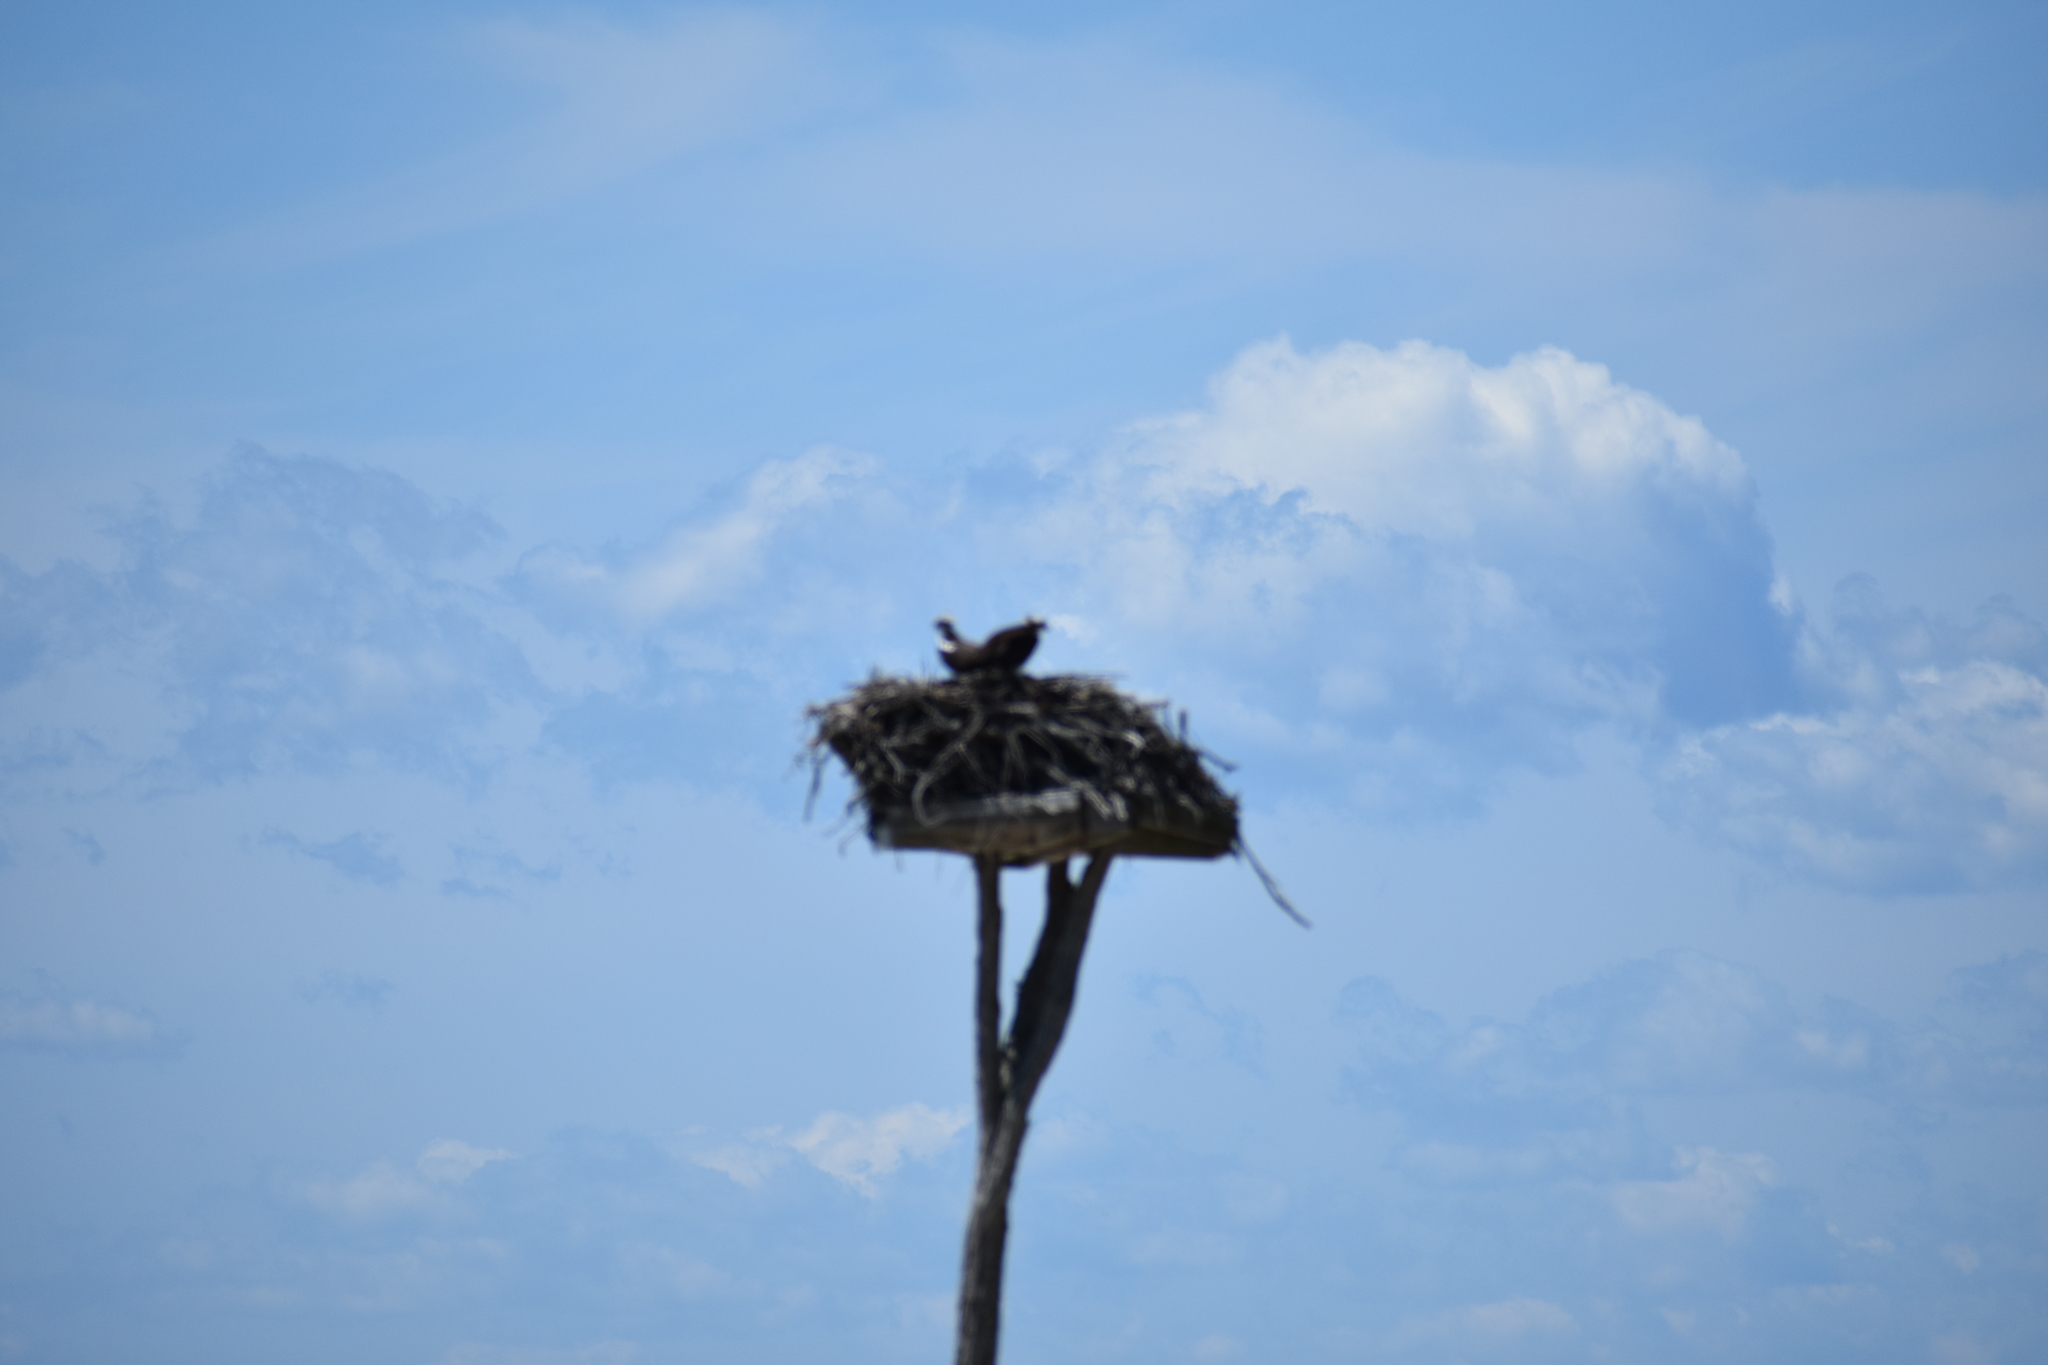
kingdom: Animalia
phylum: Chordata
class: Aves
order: Accipitriformes
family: Pandionidae
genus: Pandion
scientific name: Pandion haliaetus
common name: Osprey
